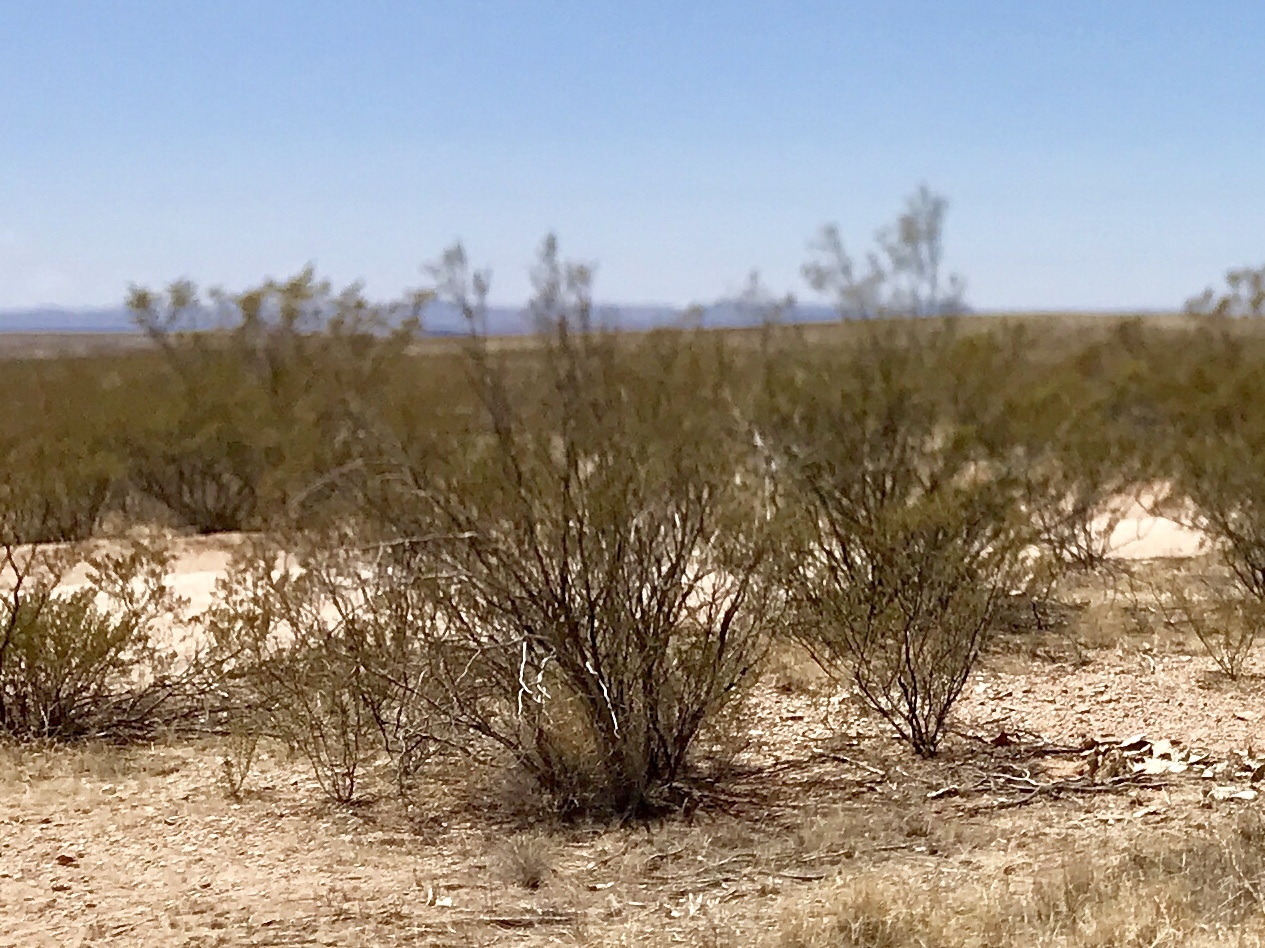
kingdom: Plantae
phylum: Tracheophyta
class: Magnoliopsida
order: Zygophyllales
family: Zygophyllaceae
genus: Larrea
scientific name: Larrea tridentata
